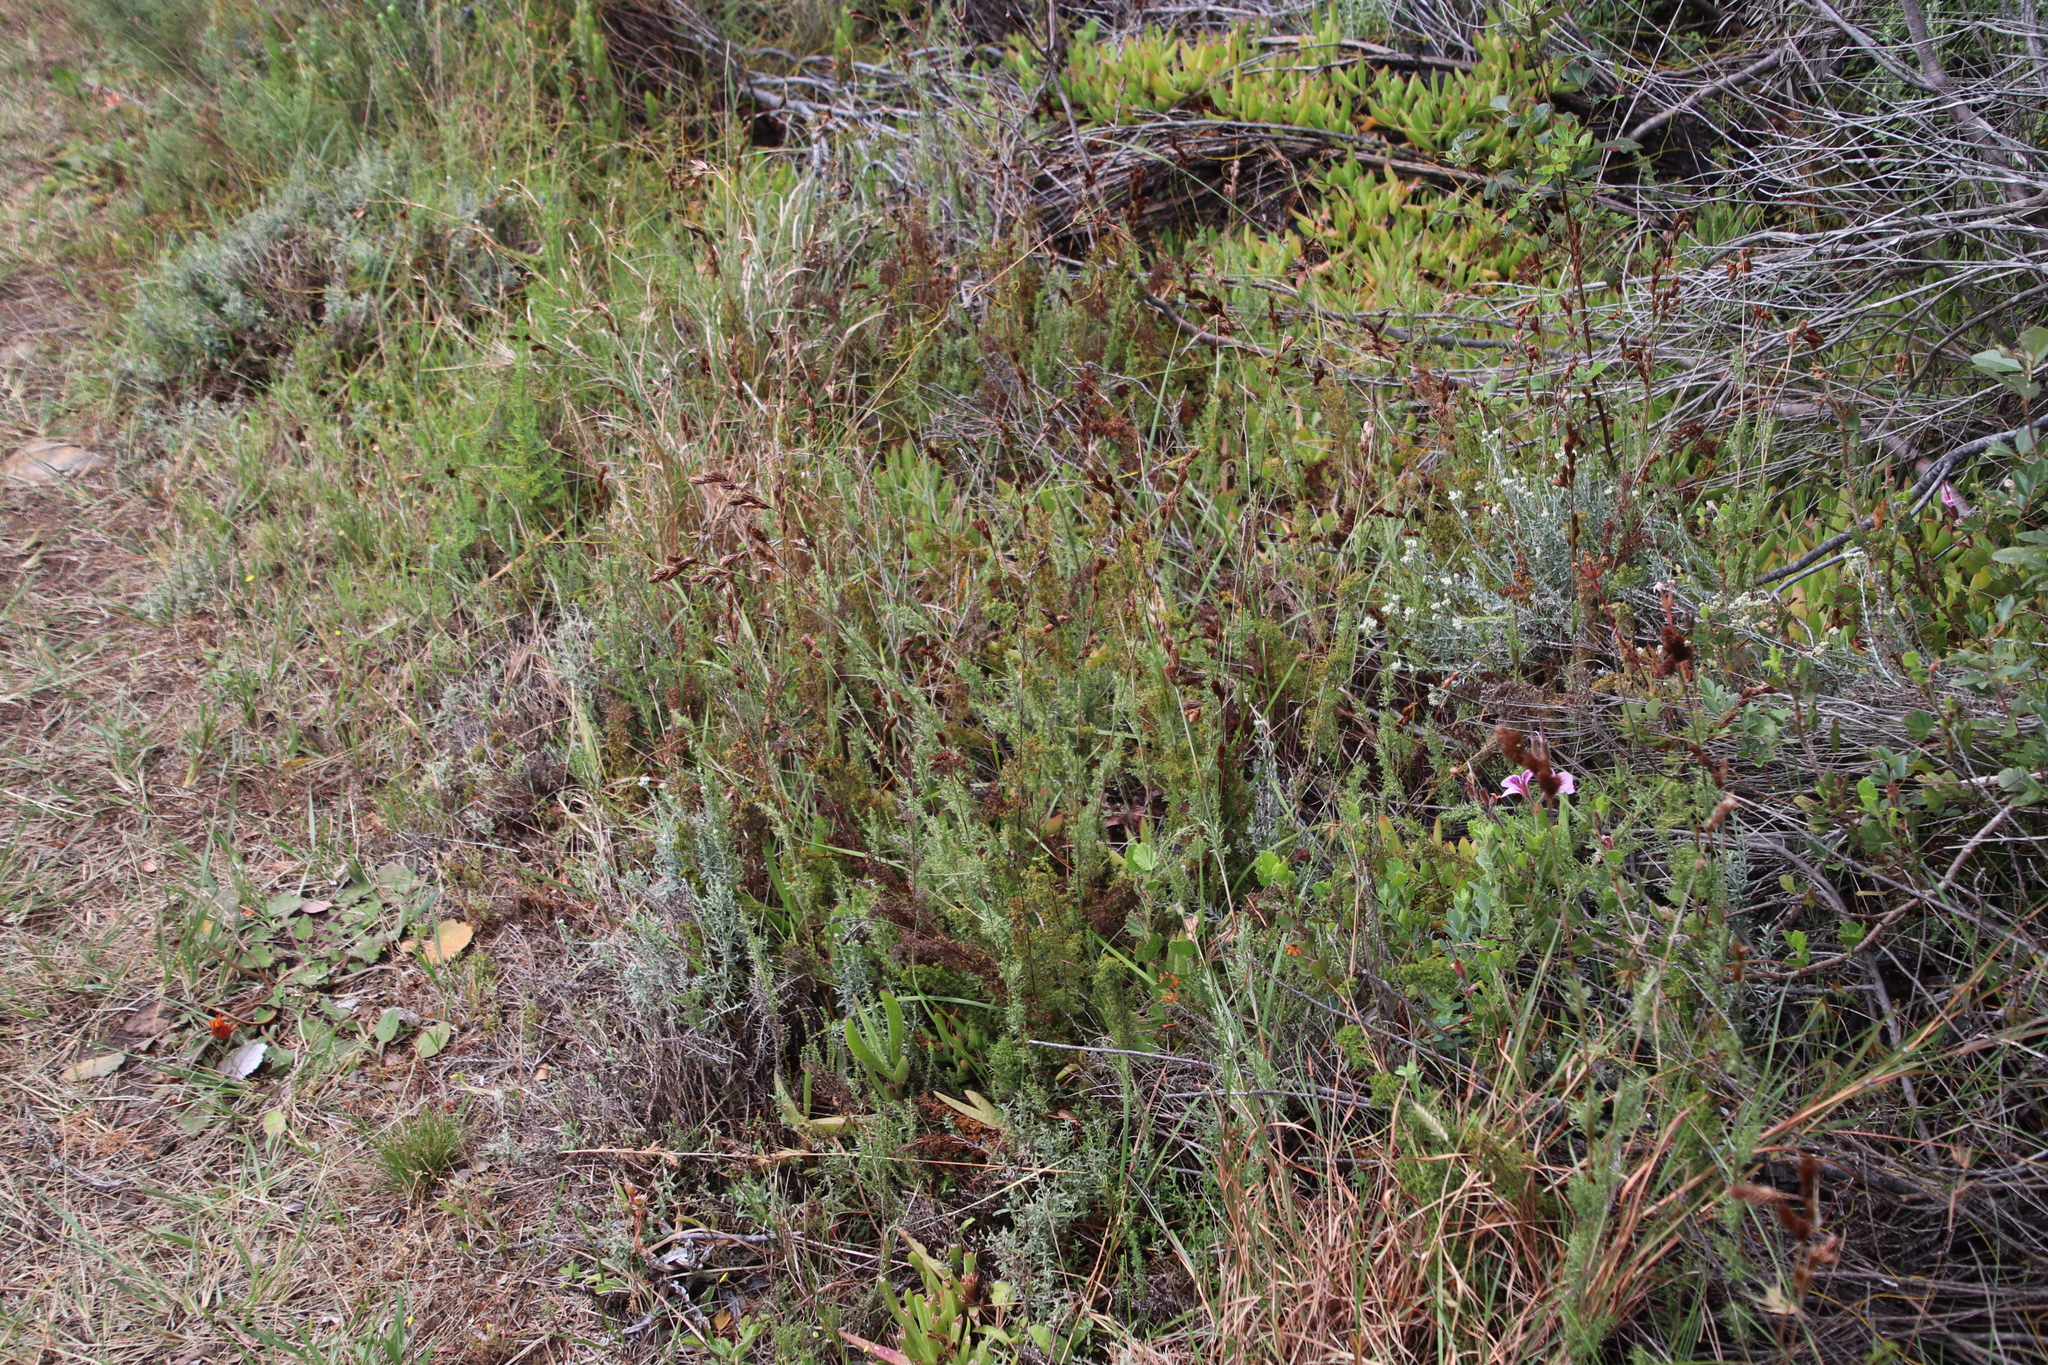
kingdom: Plantae
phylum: Tracheophyta
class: Liliopsida
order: Poales
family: Restionaceae
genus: Thamnochortus
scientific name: Thamnochortus fruticosus
